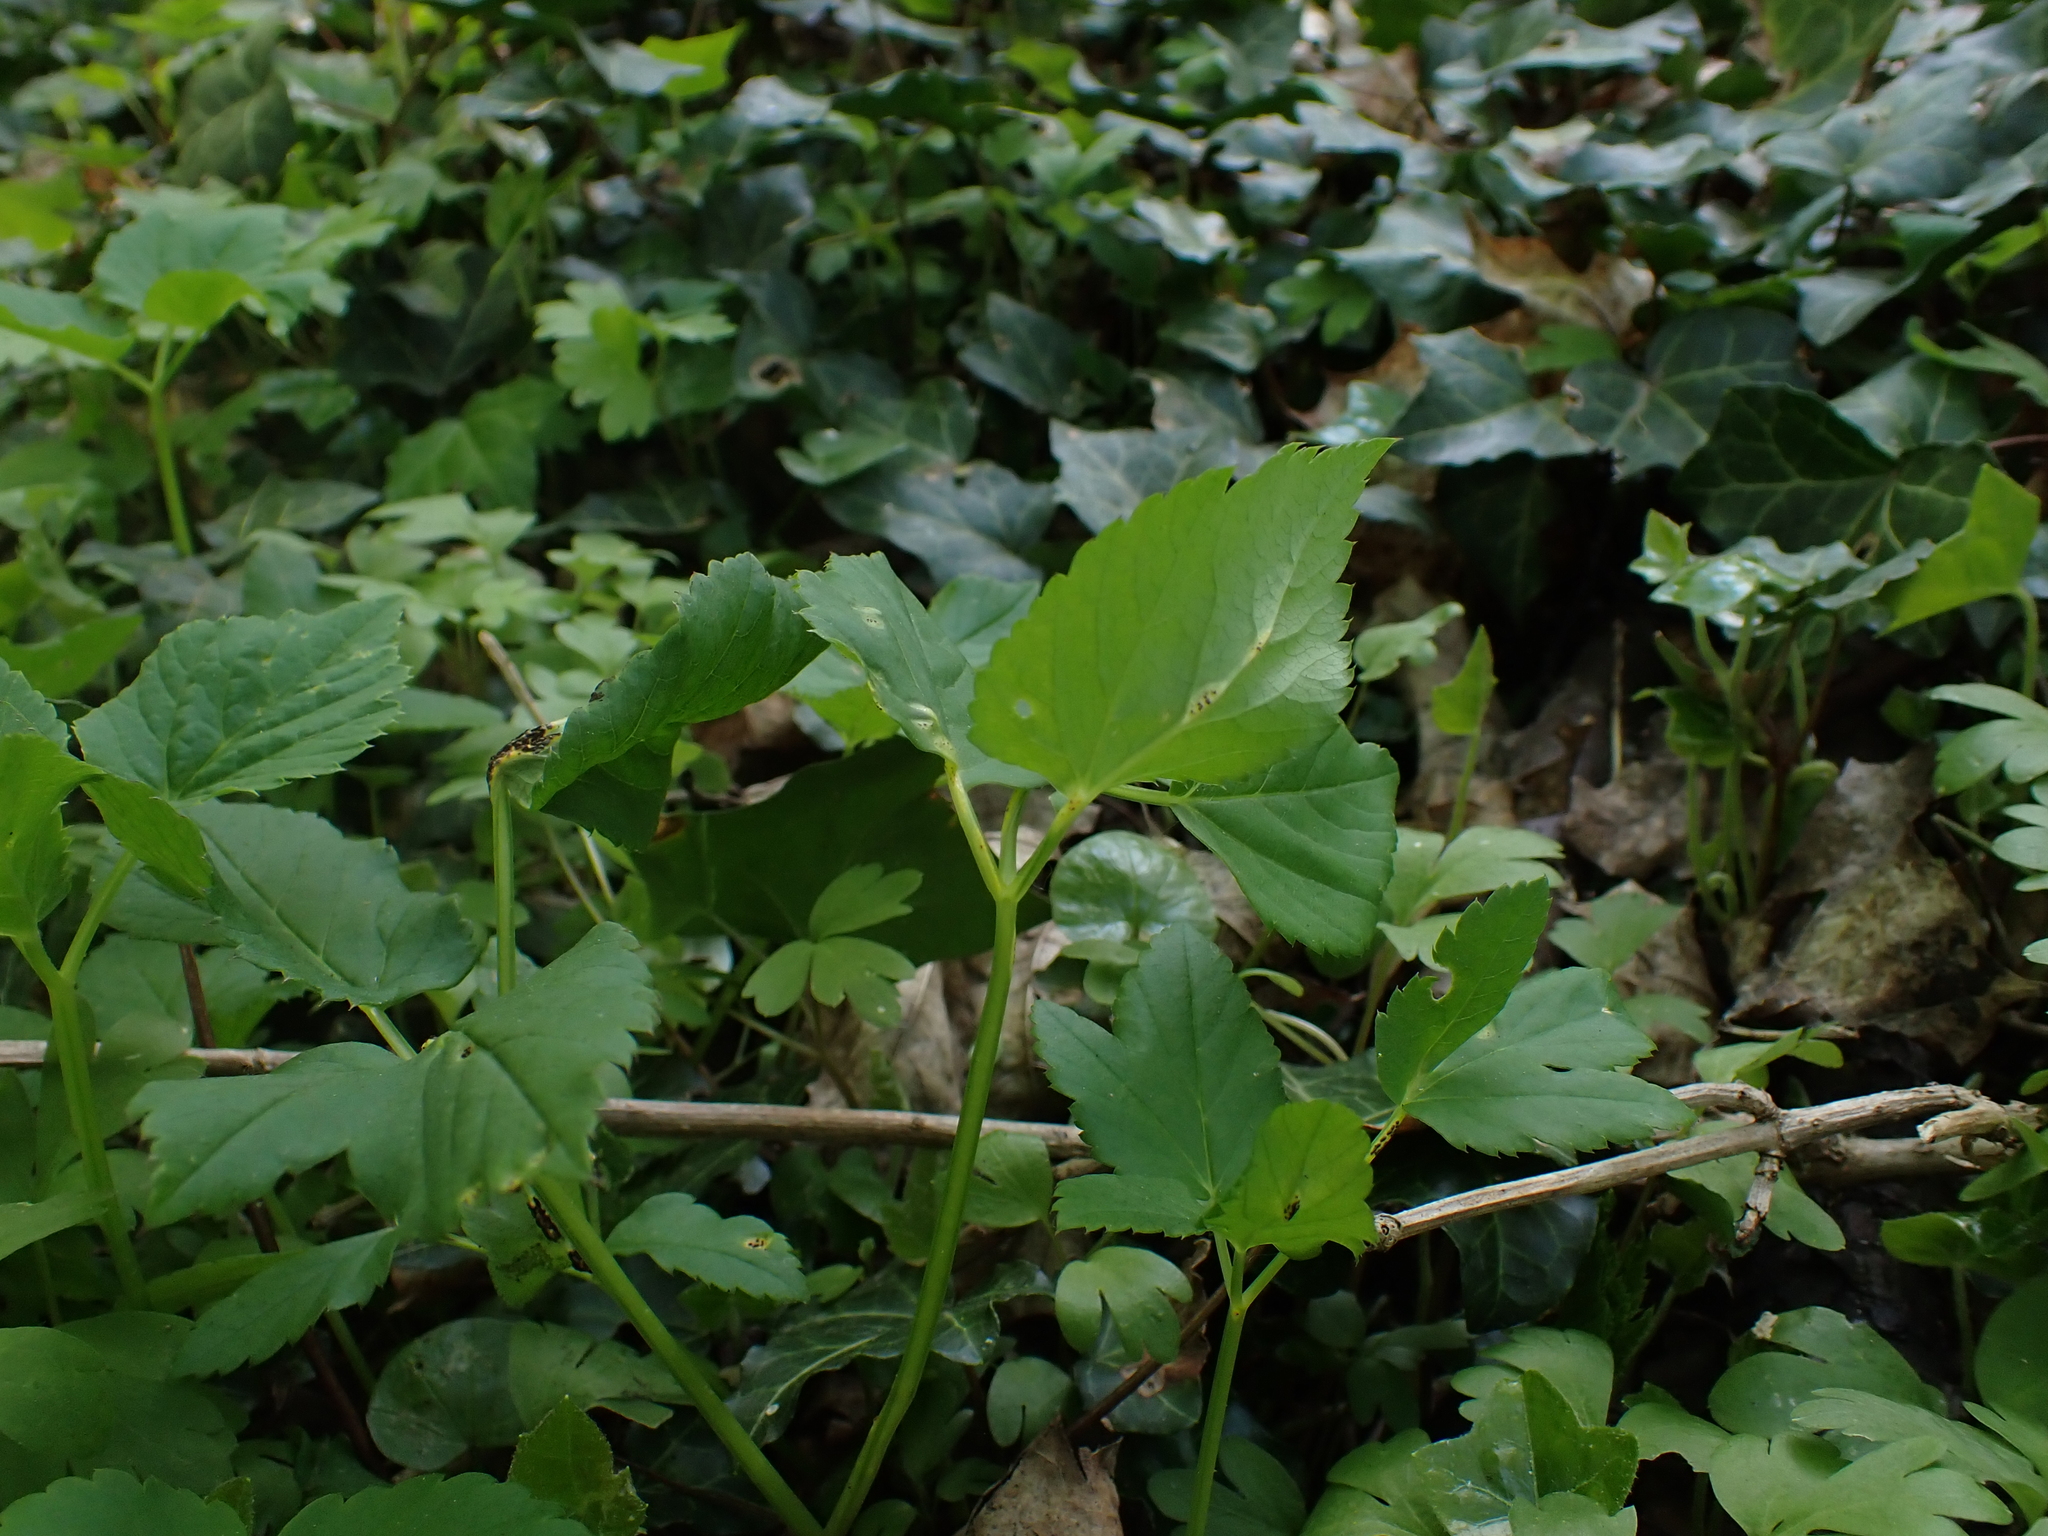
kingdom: Fungi
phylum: Basidiomycota
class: Pucciniomycetes
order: Pucciniales
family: Pucciniaceae
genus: Puccinia
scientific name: Puccinia aegopodii
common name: Ground elder rust
